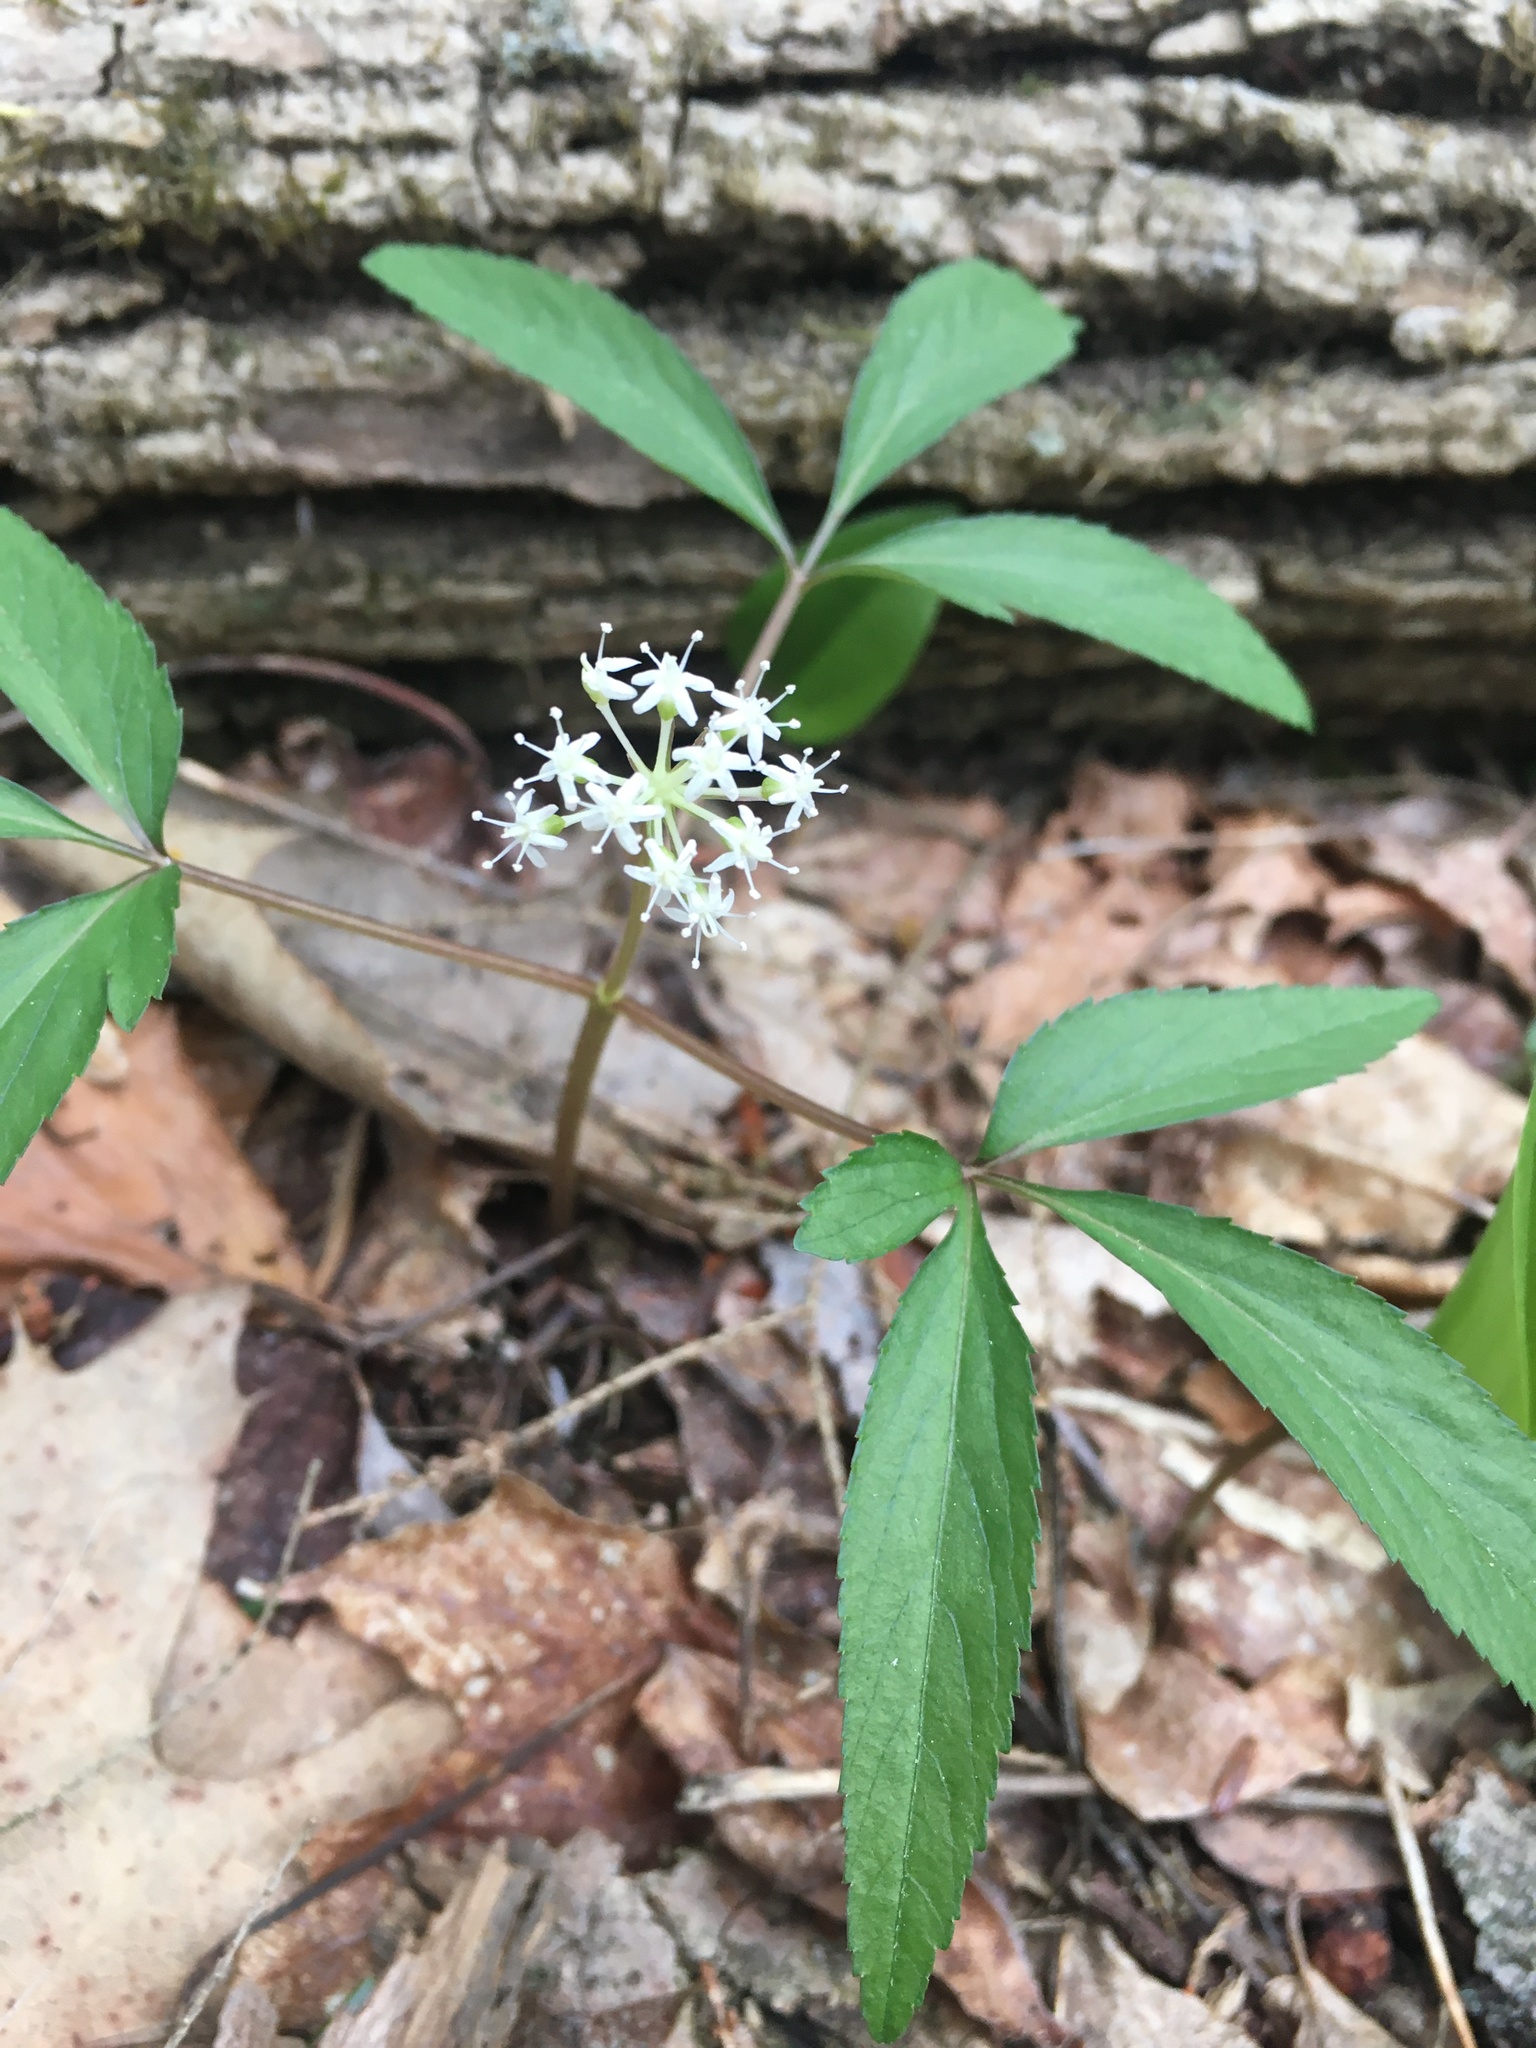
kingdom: Plantae
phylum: Tracheophyta
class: Magnoliopsida
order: Apiales
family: Araliaceae
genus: Panax
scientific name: Panax trifolius
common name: Dwarf ginseng
